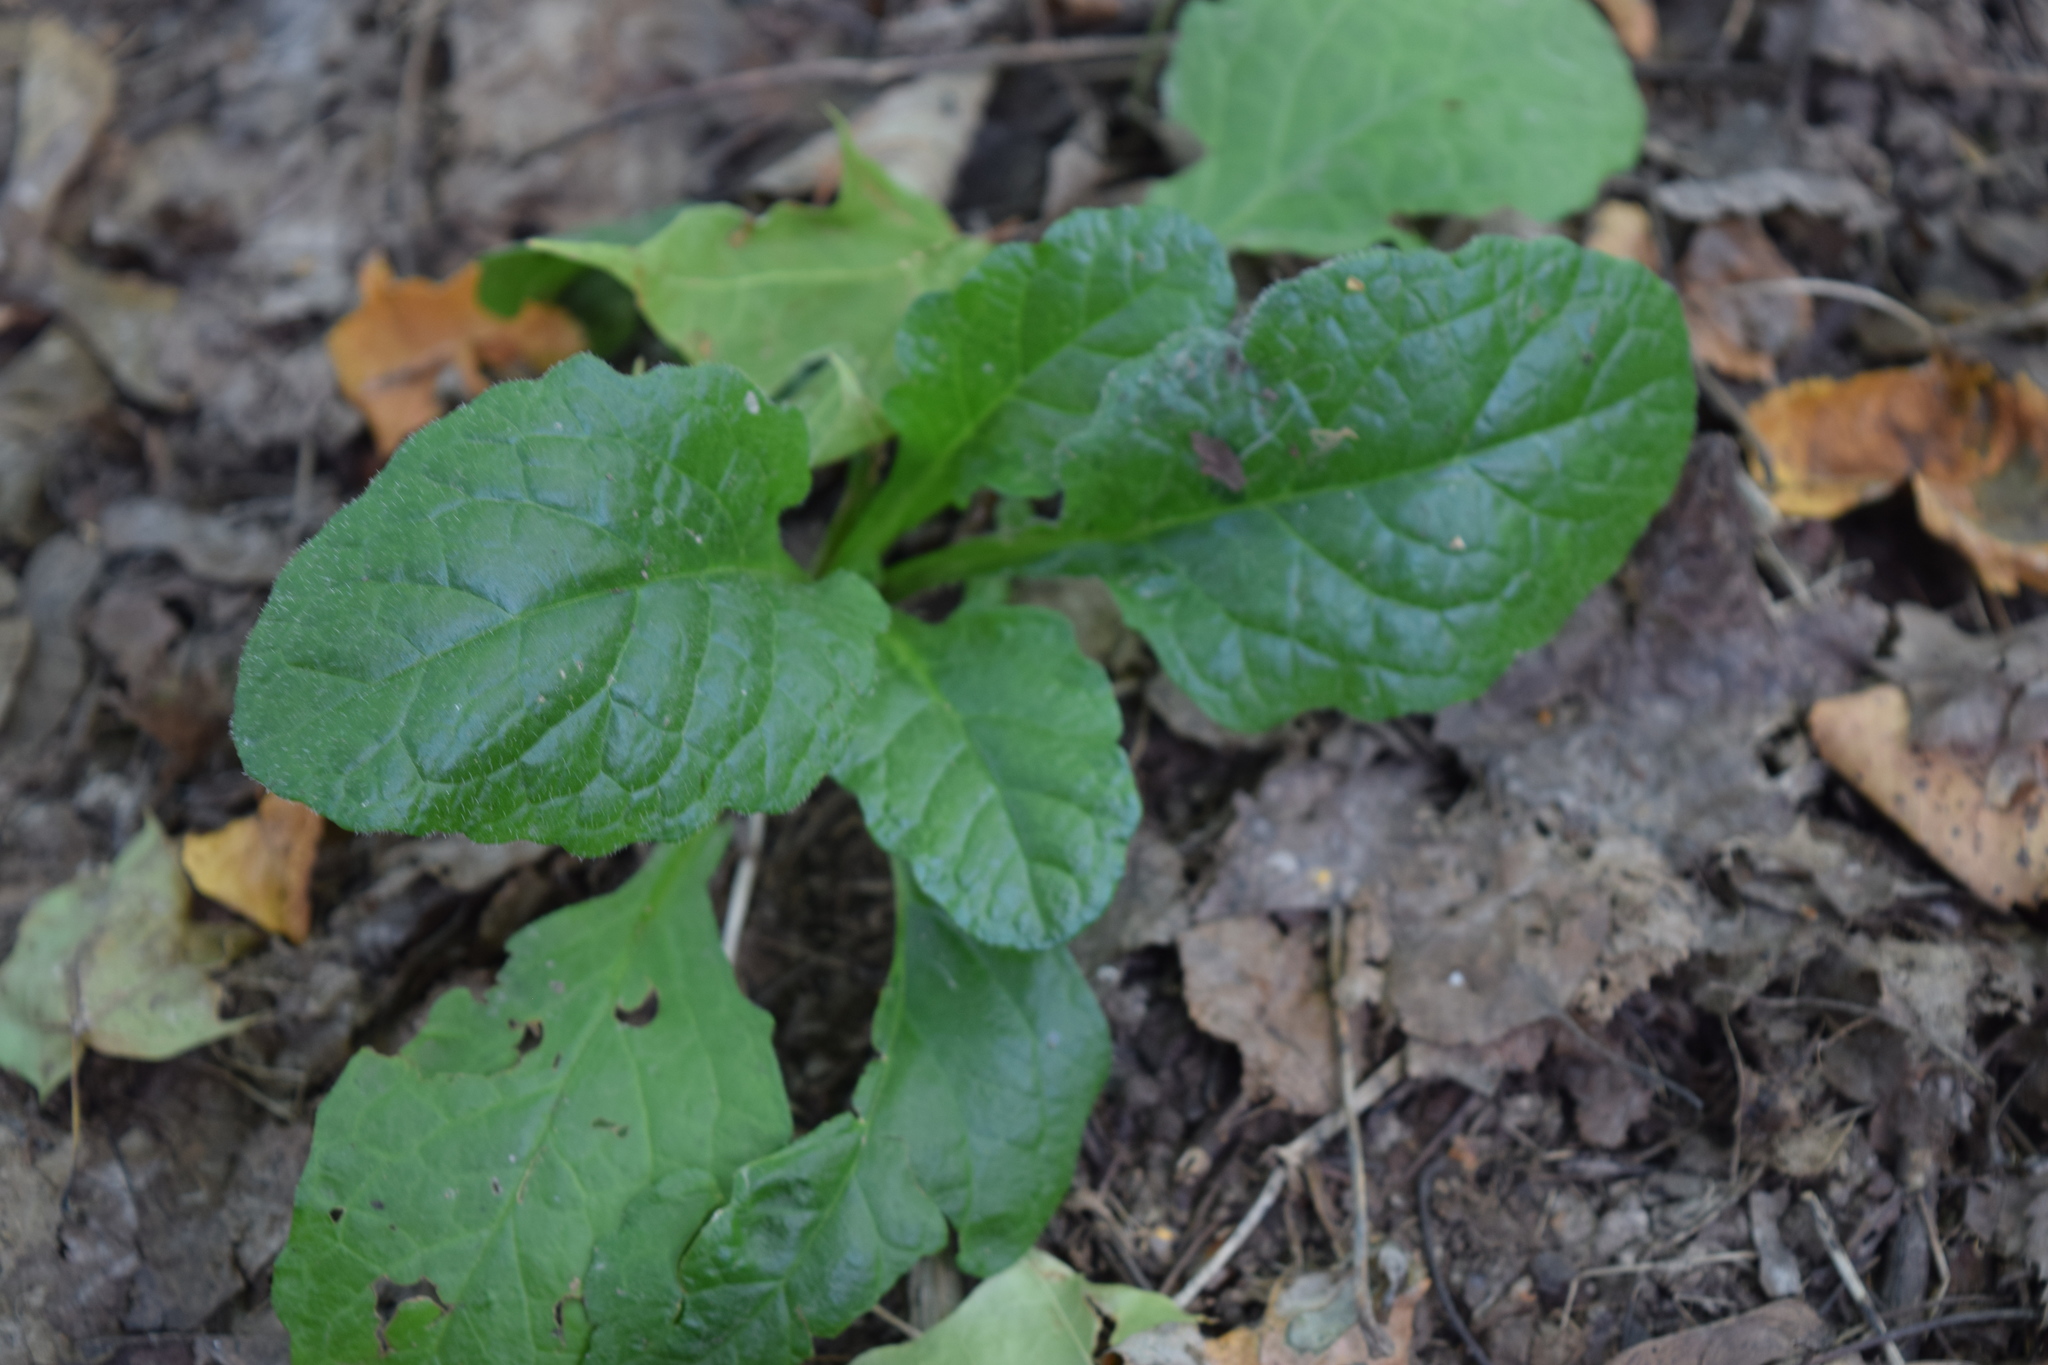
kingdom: Plantae
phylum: Tracheophyta
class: Magnoliopsida
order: Lamiales
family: Lamiaceae
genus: Ajuga
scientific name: Ajuga reptans
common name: Bugle
